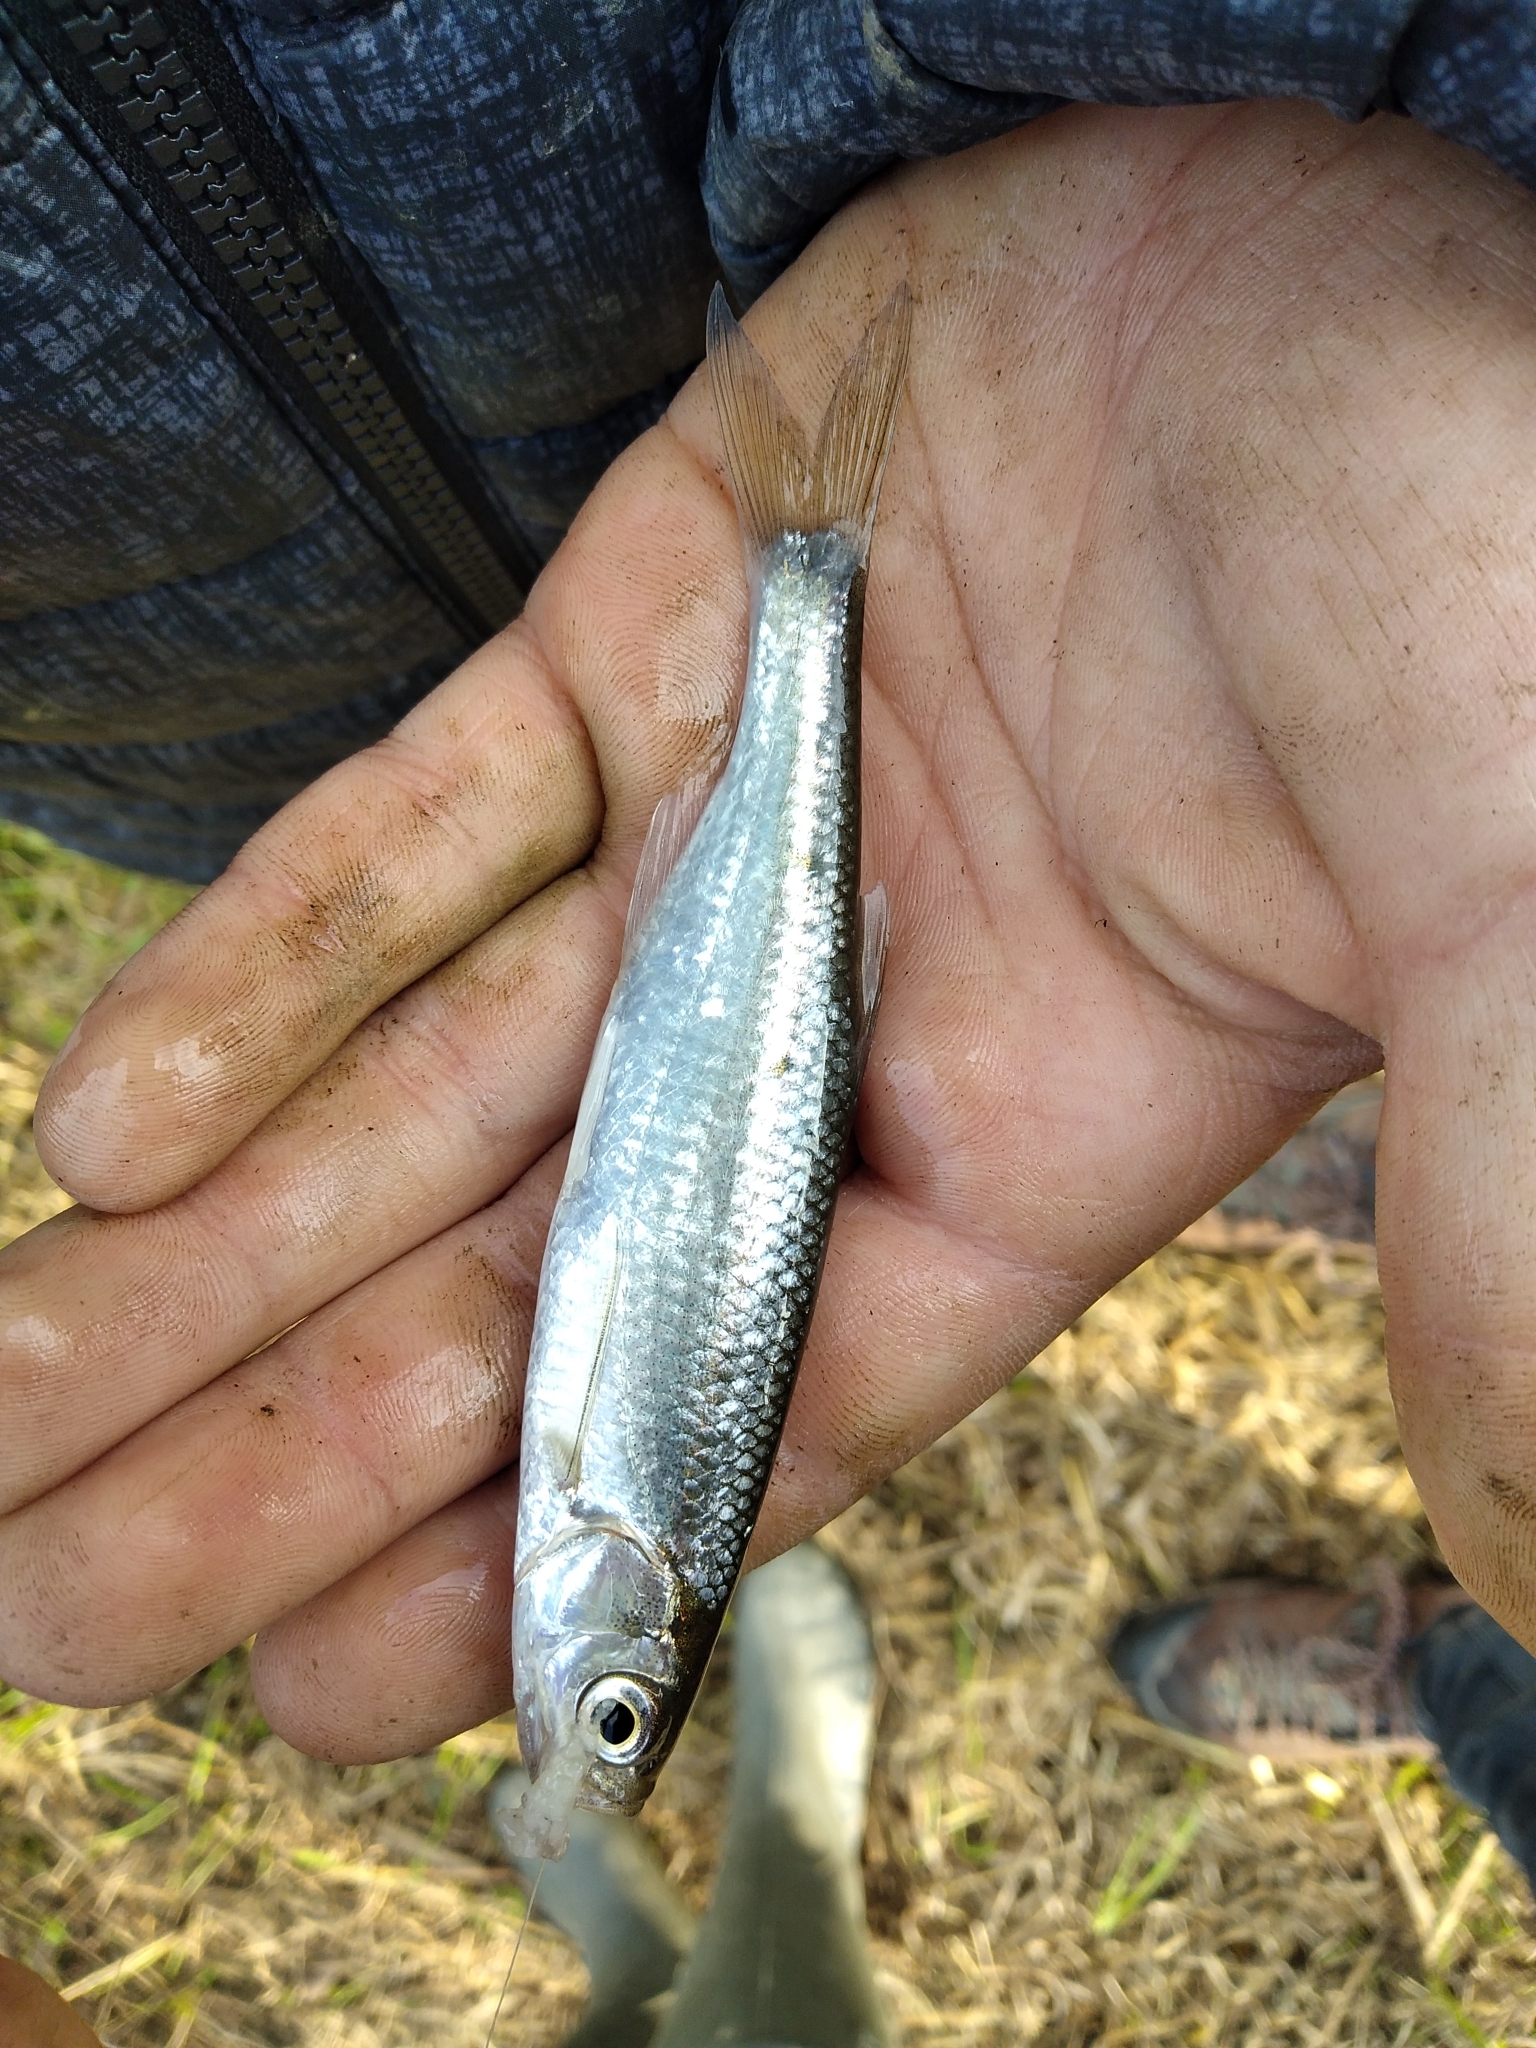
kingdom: Animalia
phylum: Chordata
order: Cypriniformes
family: Cyprinidae
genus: Alburnus
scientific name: Alburnus arborella
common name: Alborella
